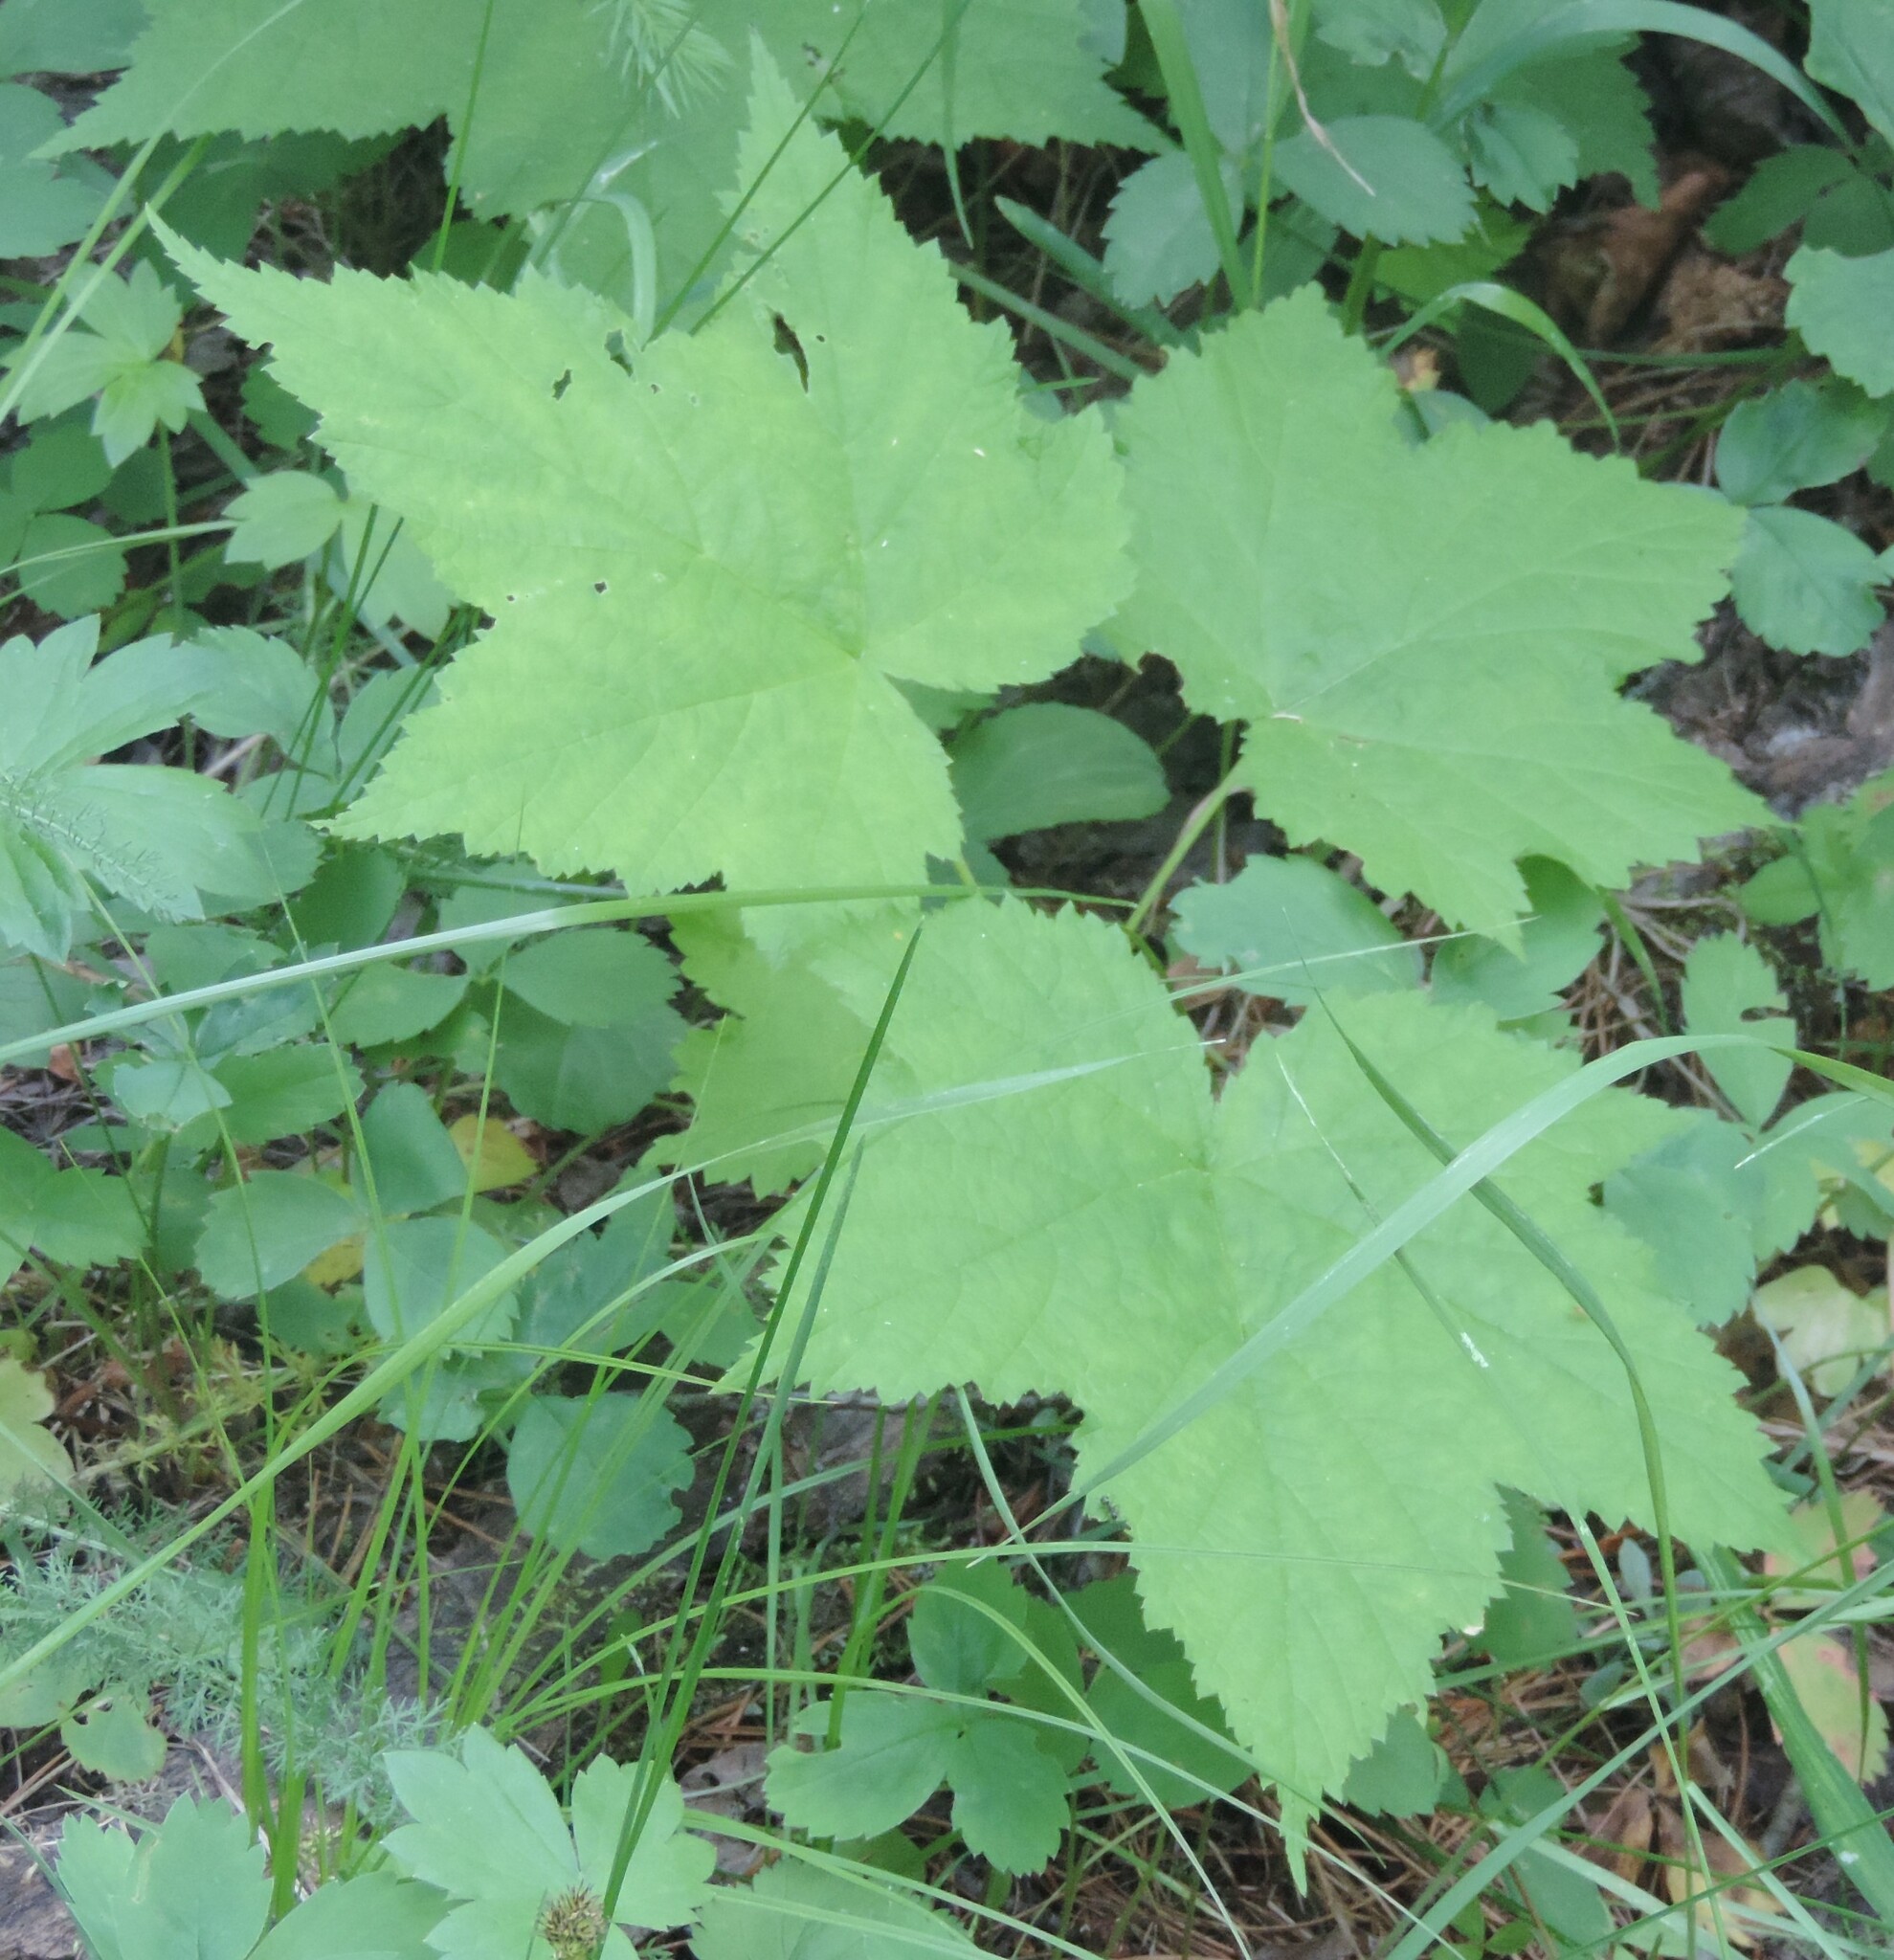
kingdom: Plantae
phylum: Tracheophyta
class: Magnoliopsida
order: Rosales
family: Rosaceae
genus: Rubus
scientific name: Rubus parviflorus
